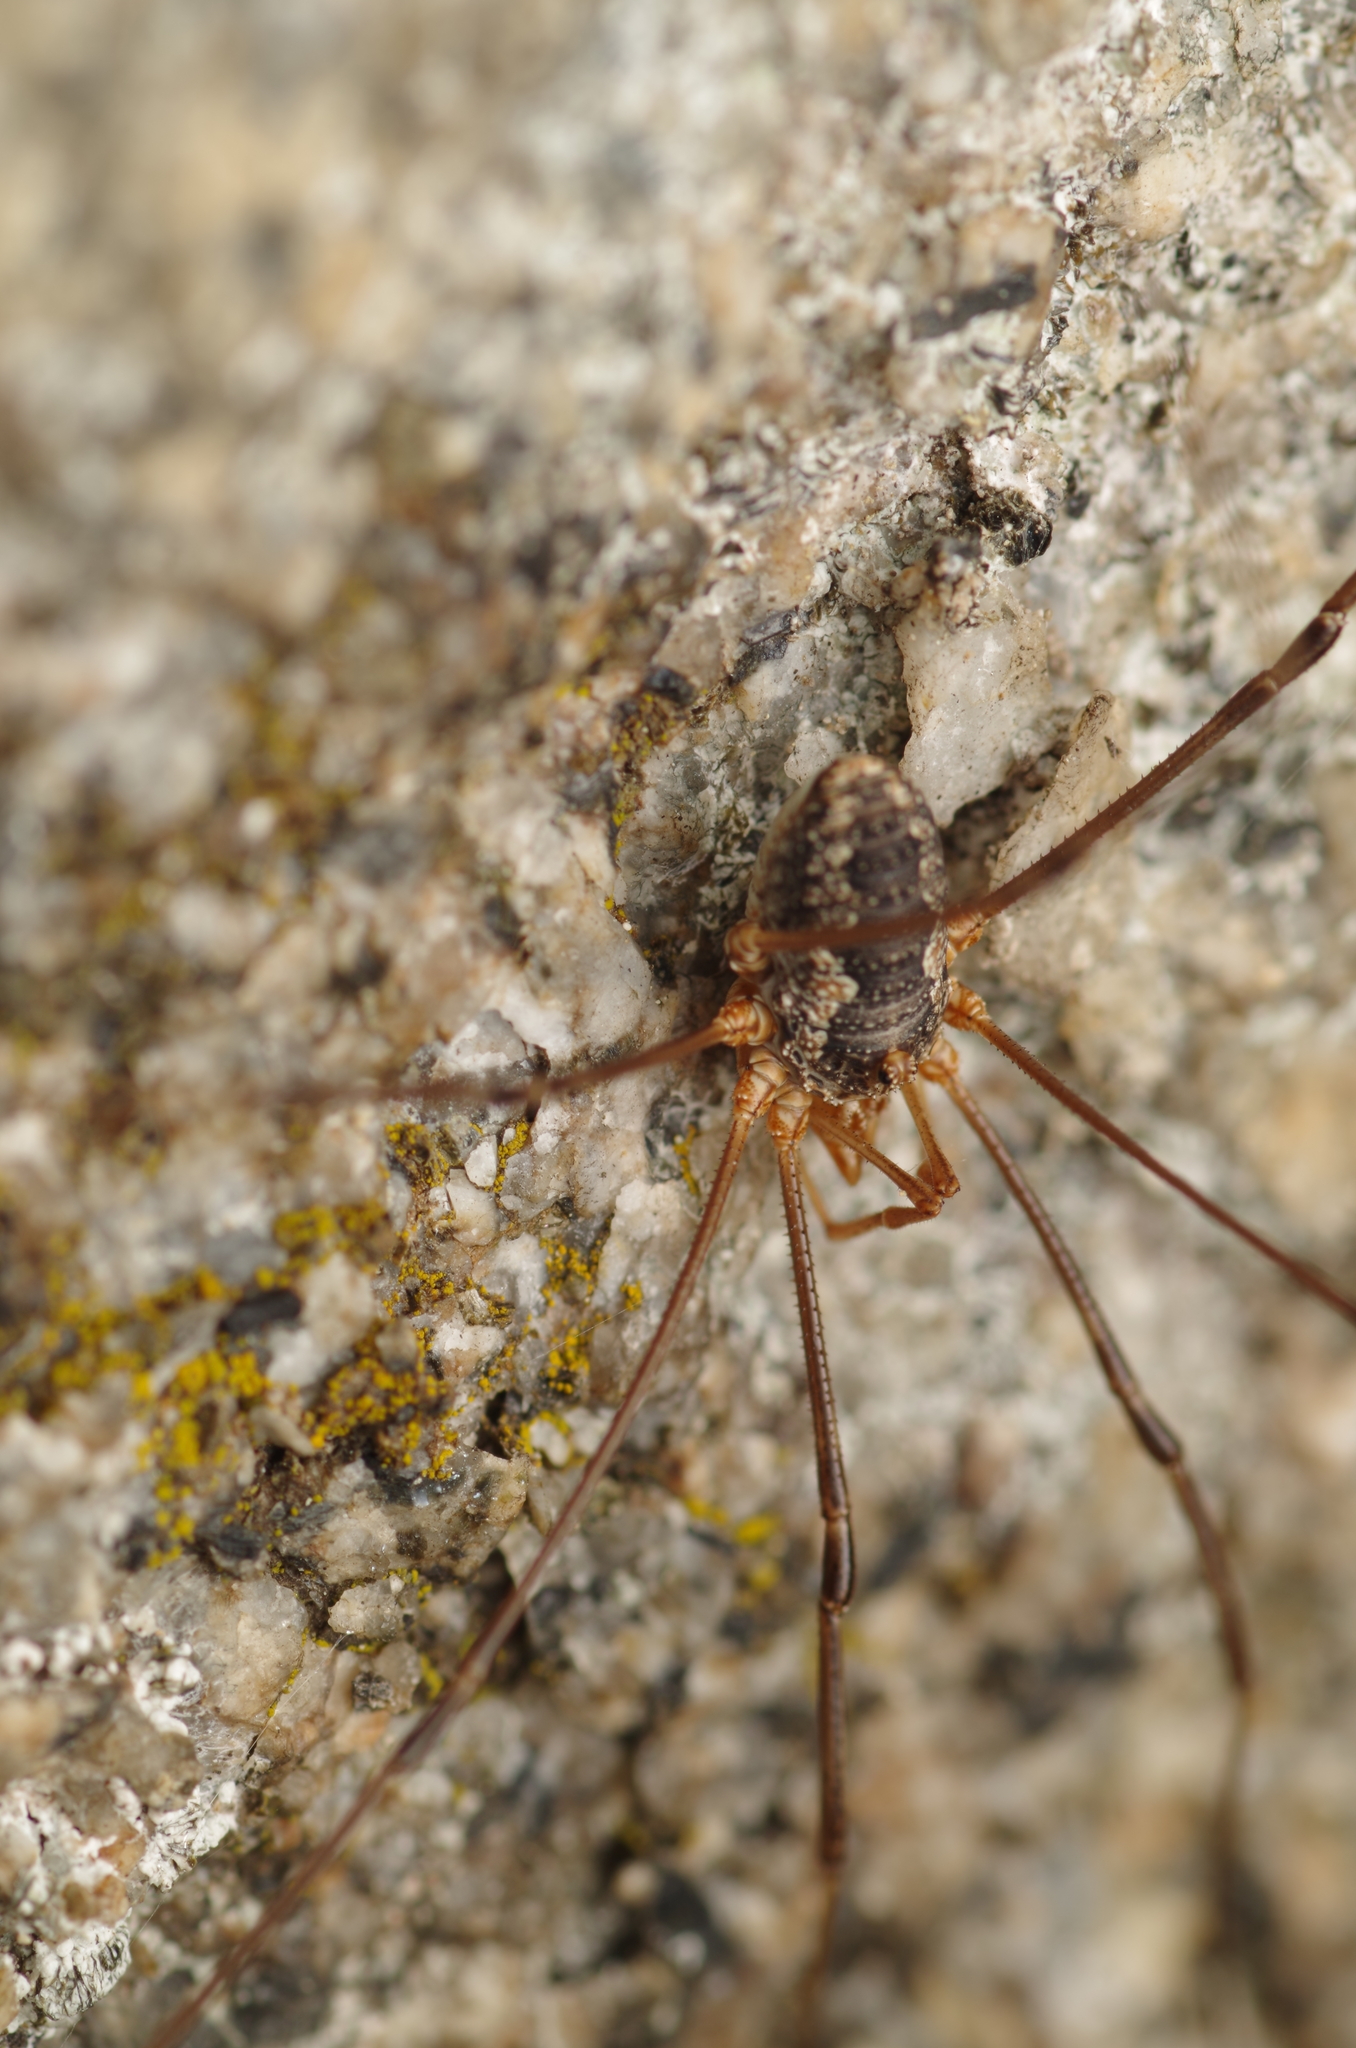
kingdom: Animalia
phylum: Arthropoda
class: Arachnida
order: Opiliones
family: Phalangiidae
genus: Phalangium
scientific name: Phalangium opilio
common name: Daddy longleg
